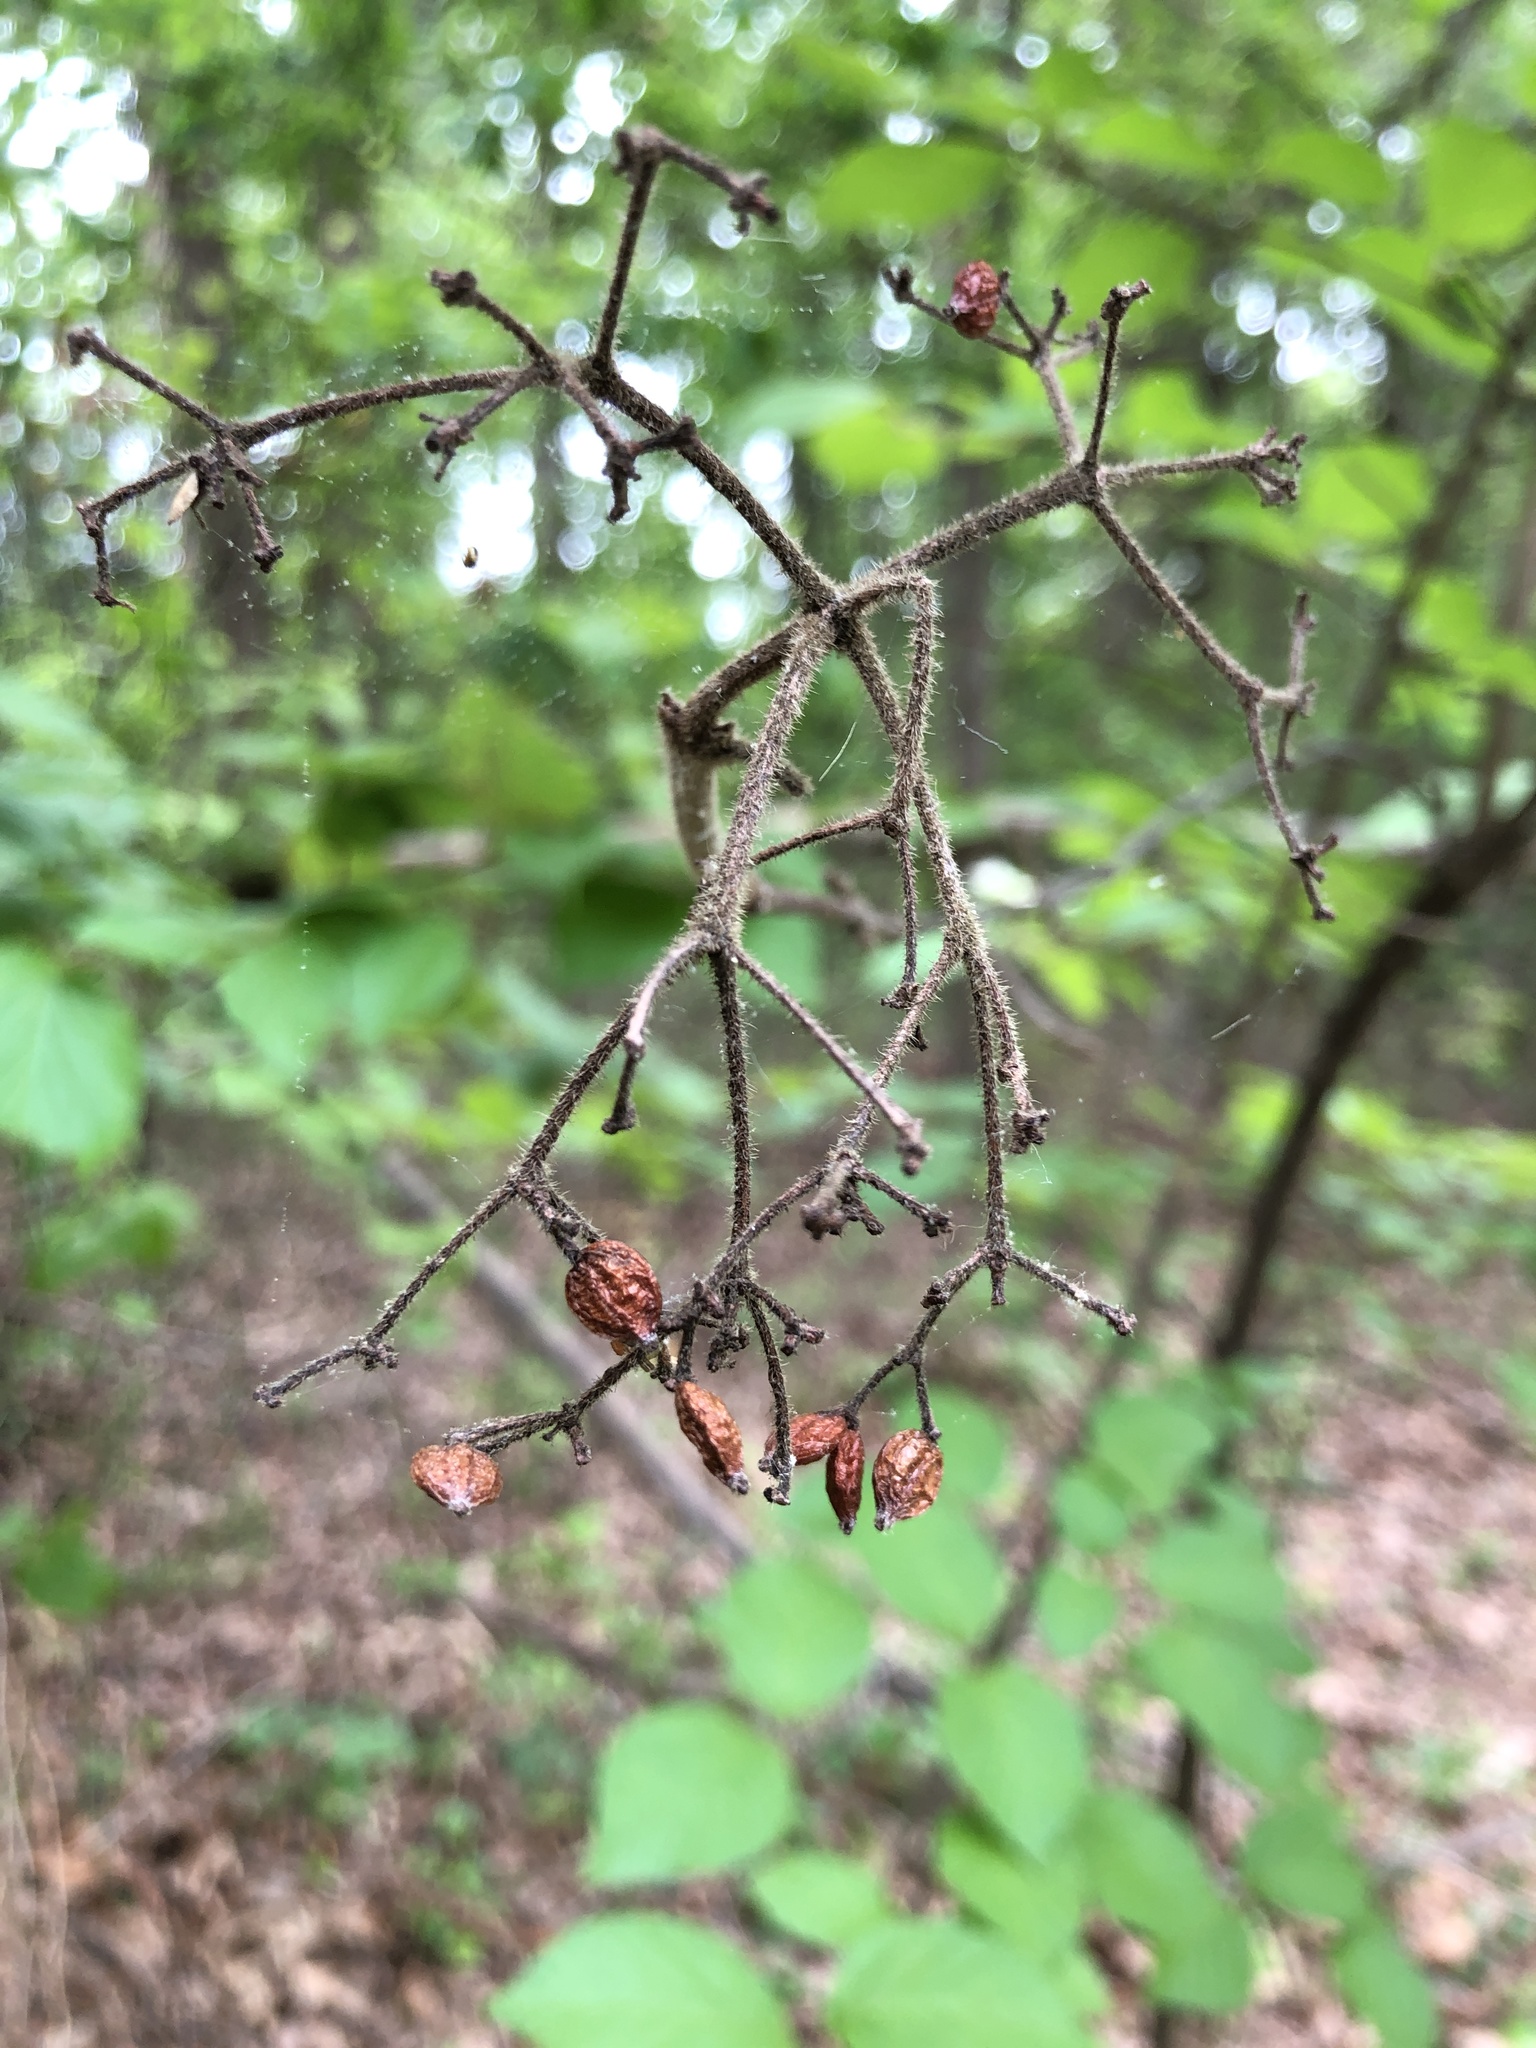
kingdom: Plantae
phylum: Tracheophyta
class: Magnoliopsida
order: Dipsacales
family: Viburnaceae
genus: Viburnum
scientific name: Viburnum dilatatum
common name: Linden arrowwood
